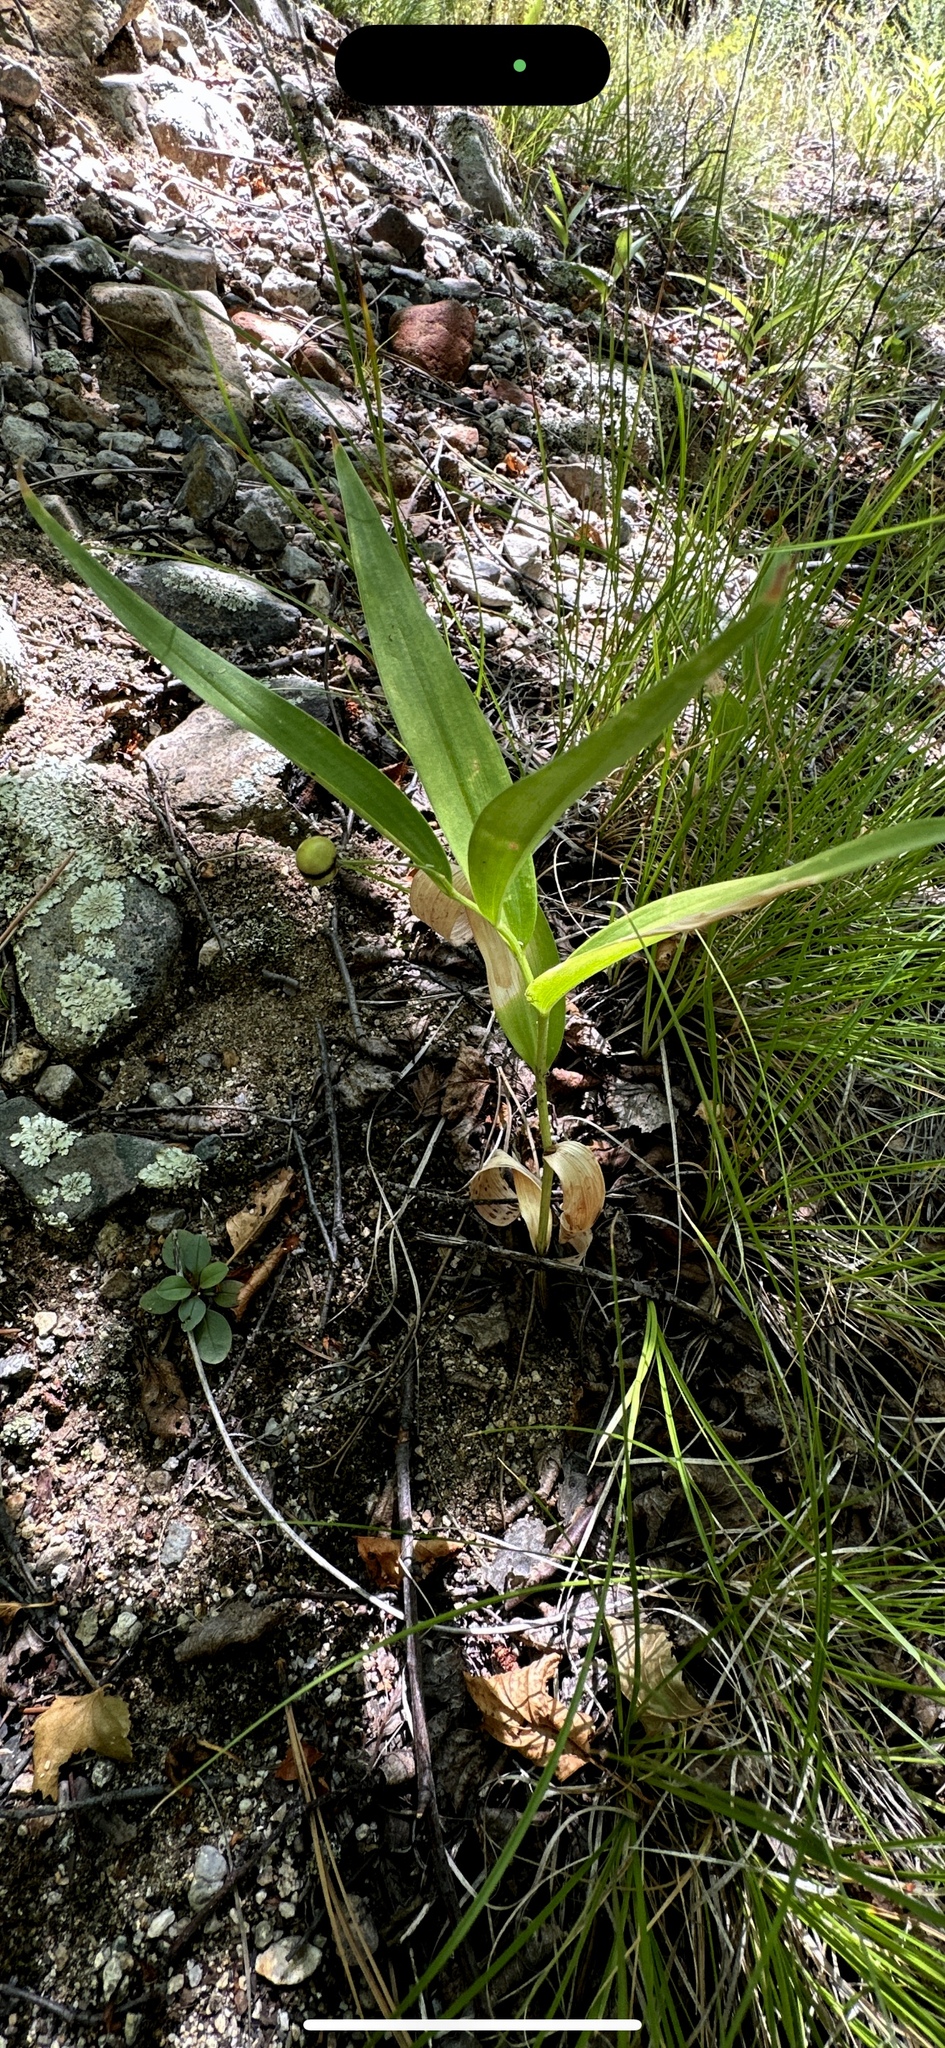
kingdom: Plantae
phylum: Tracheophyta
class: Liliopsida
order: Asparagales
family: Asparagaceae
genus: Maianthemum
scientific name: Maianthemum stellatum
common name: Little false solomon's seal
